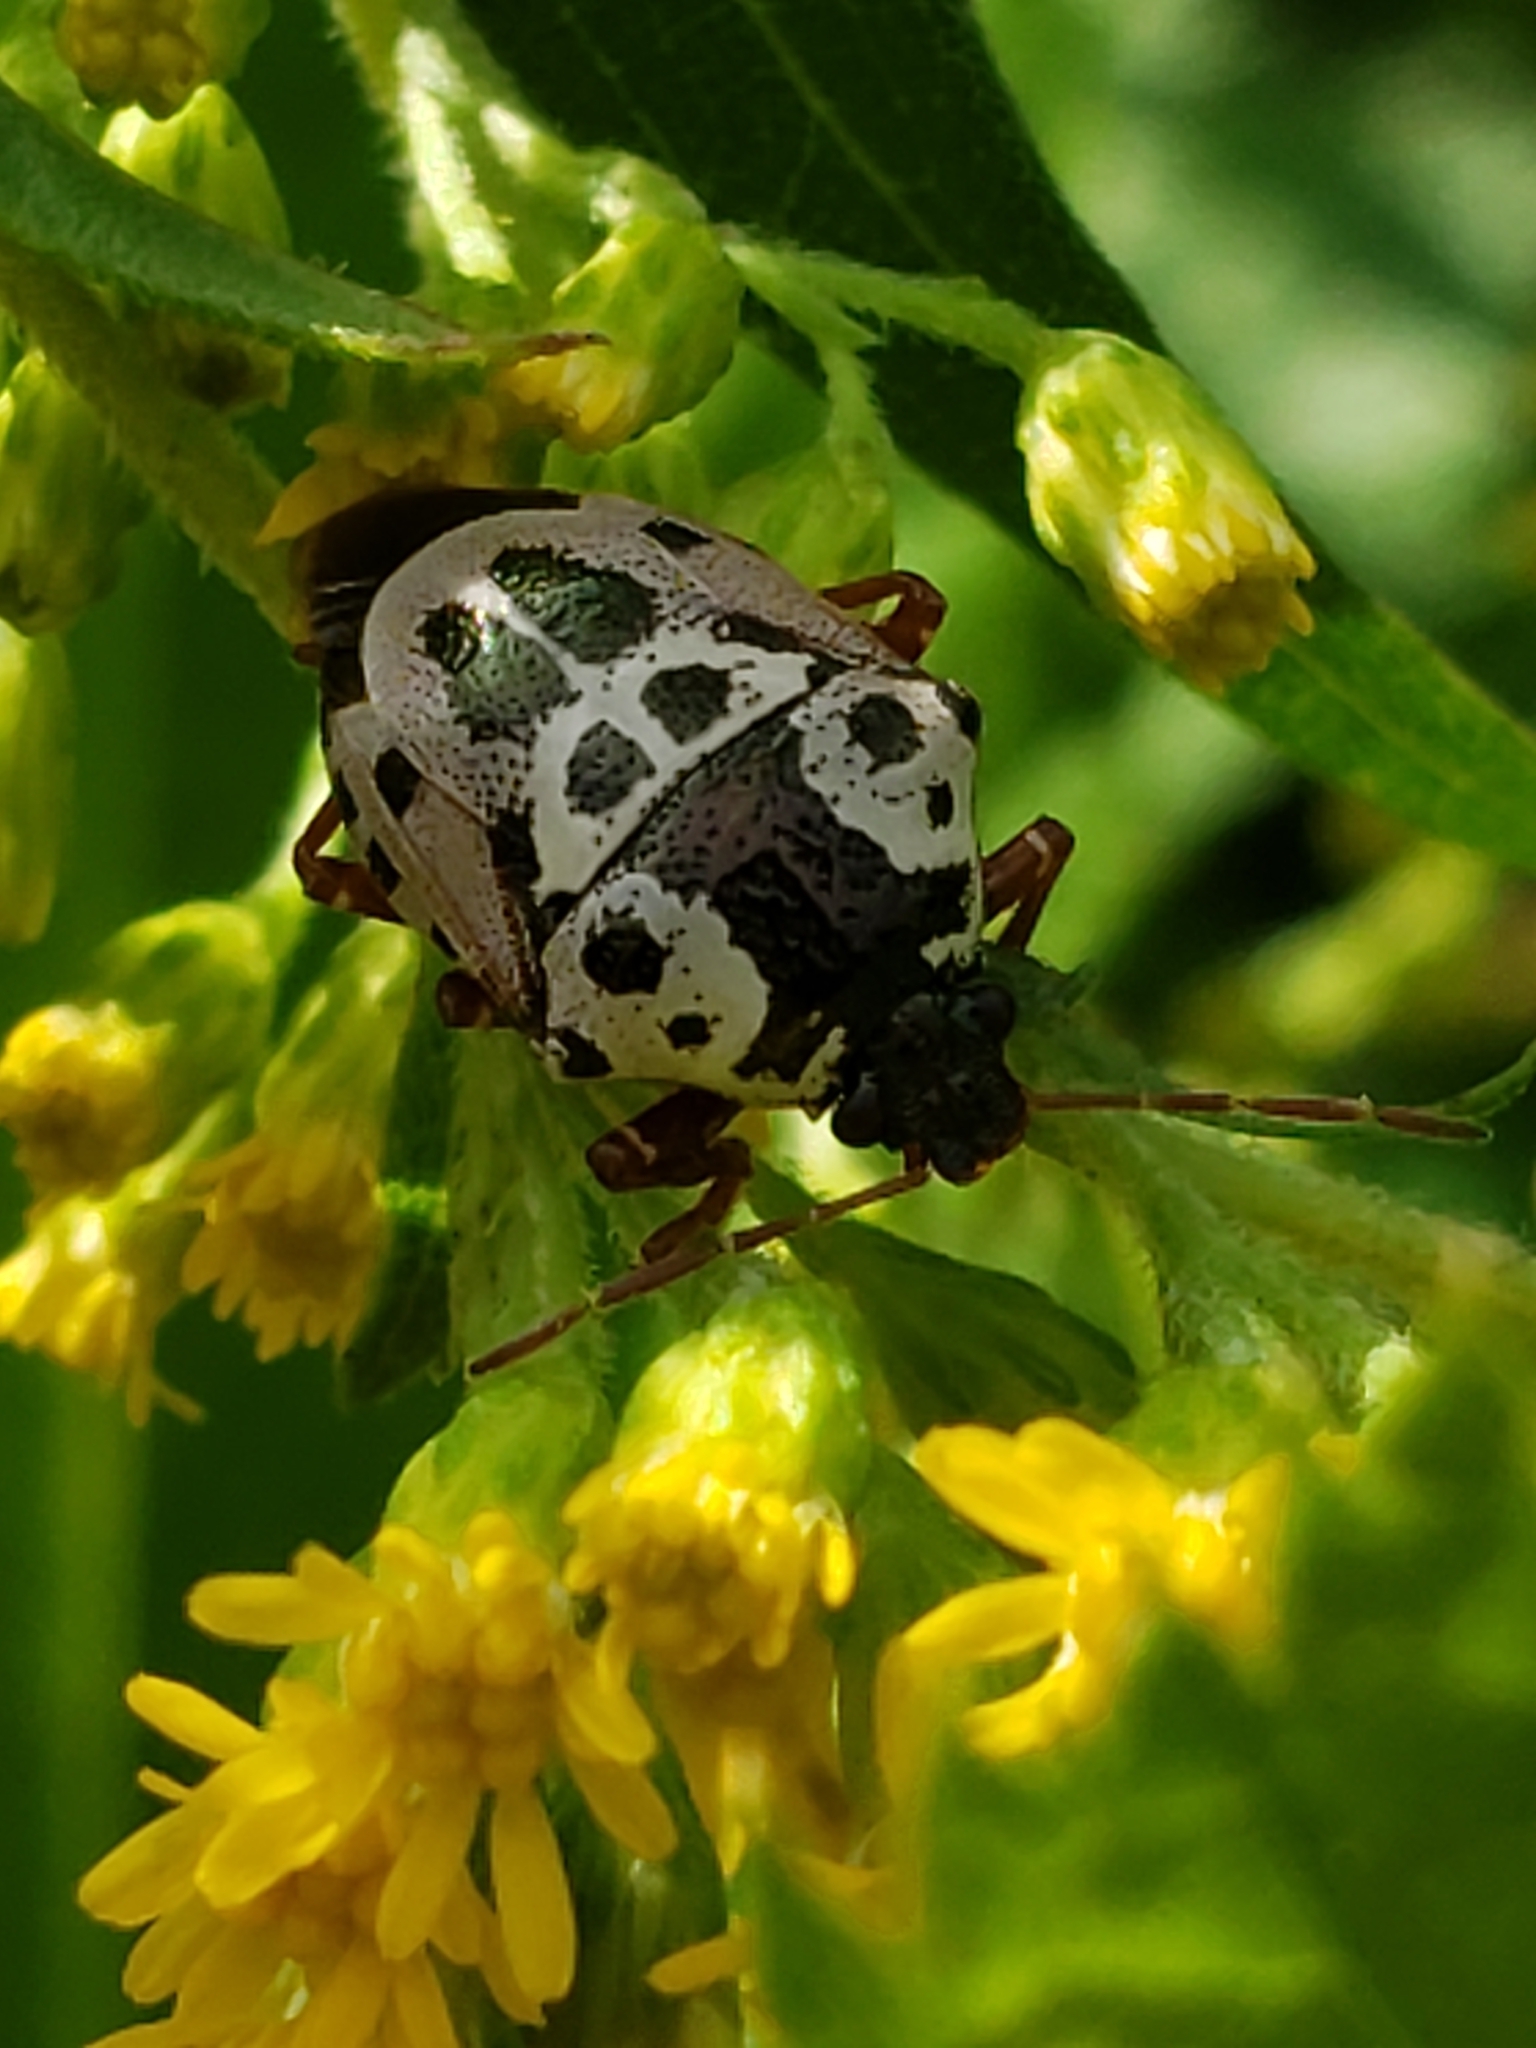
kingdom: Animalia
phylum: Arthropoda
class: Insecta
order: Hemiptera
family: Pentatomidae
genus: Stiretrus
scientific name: Stiretrus anchorago
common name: Anchor stink bug
